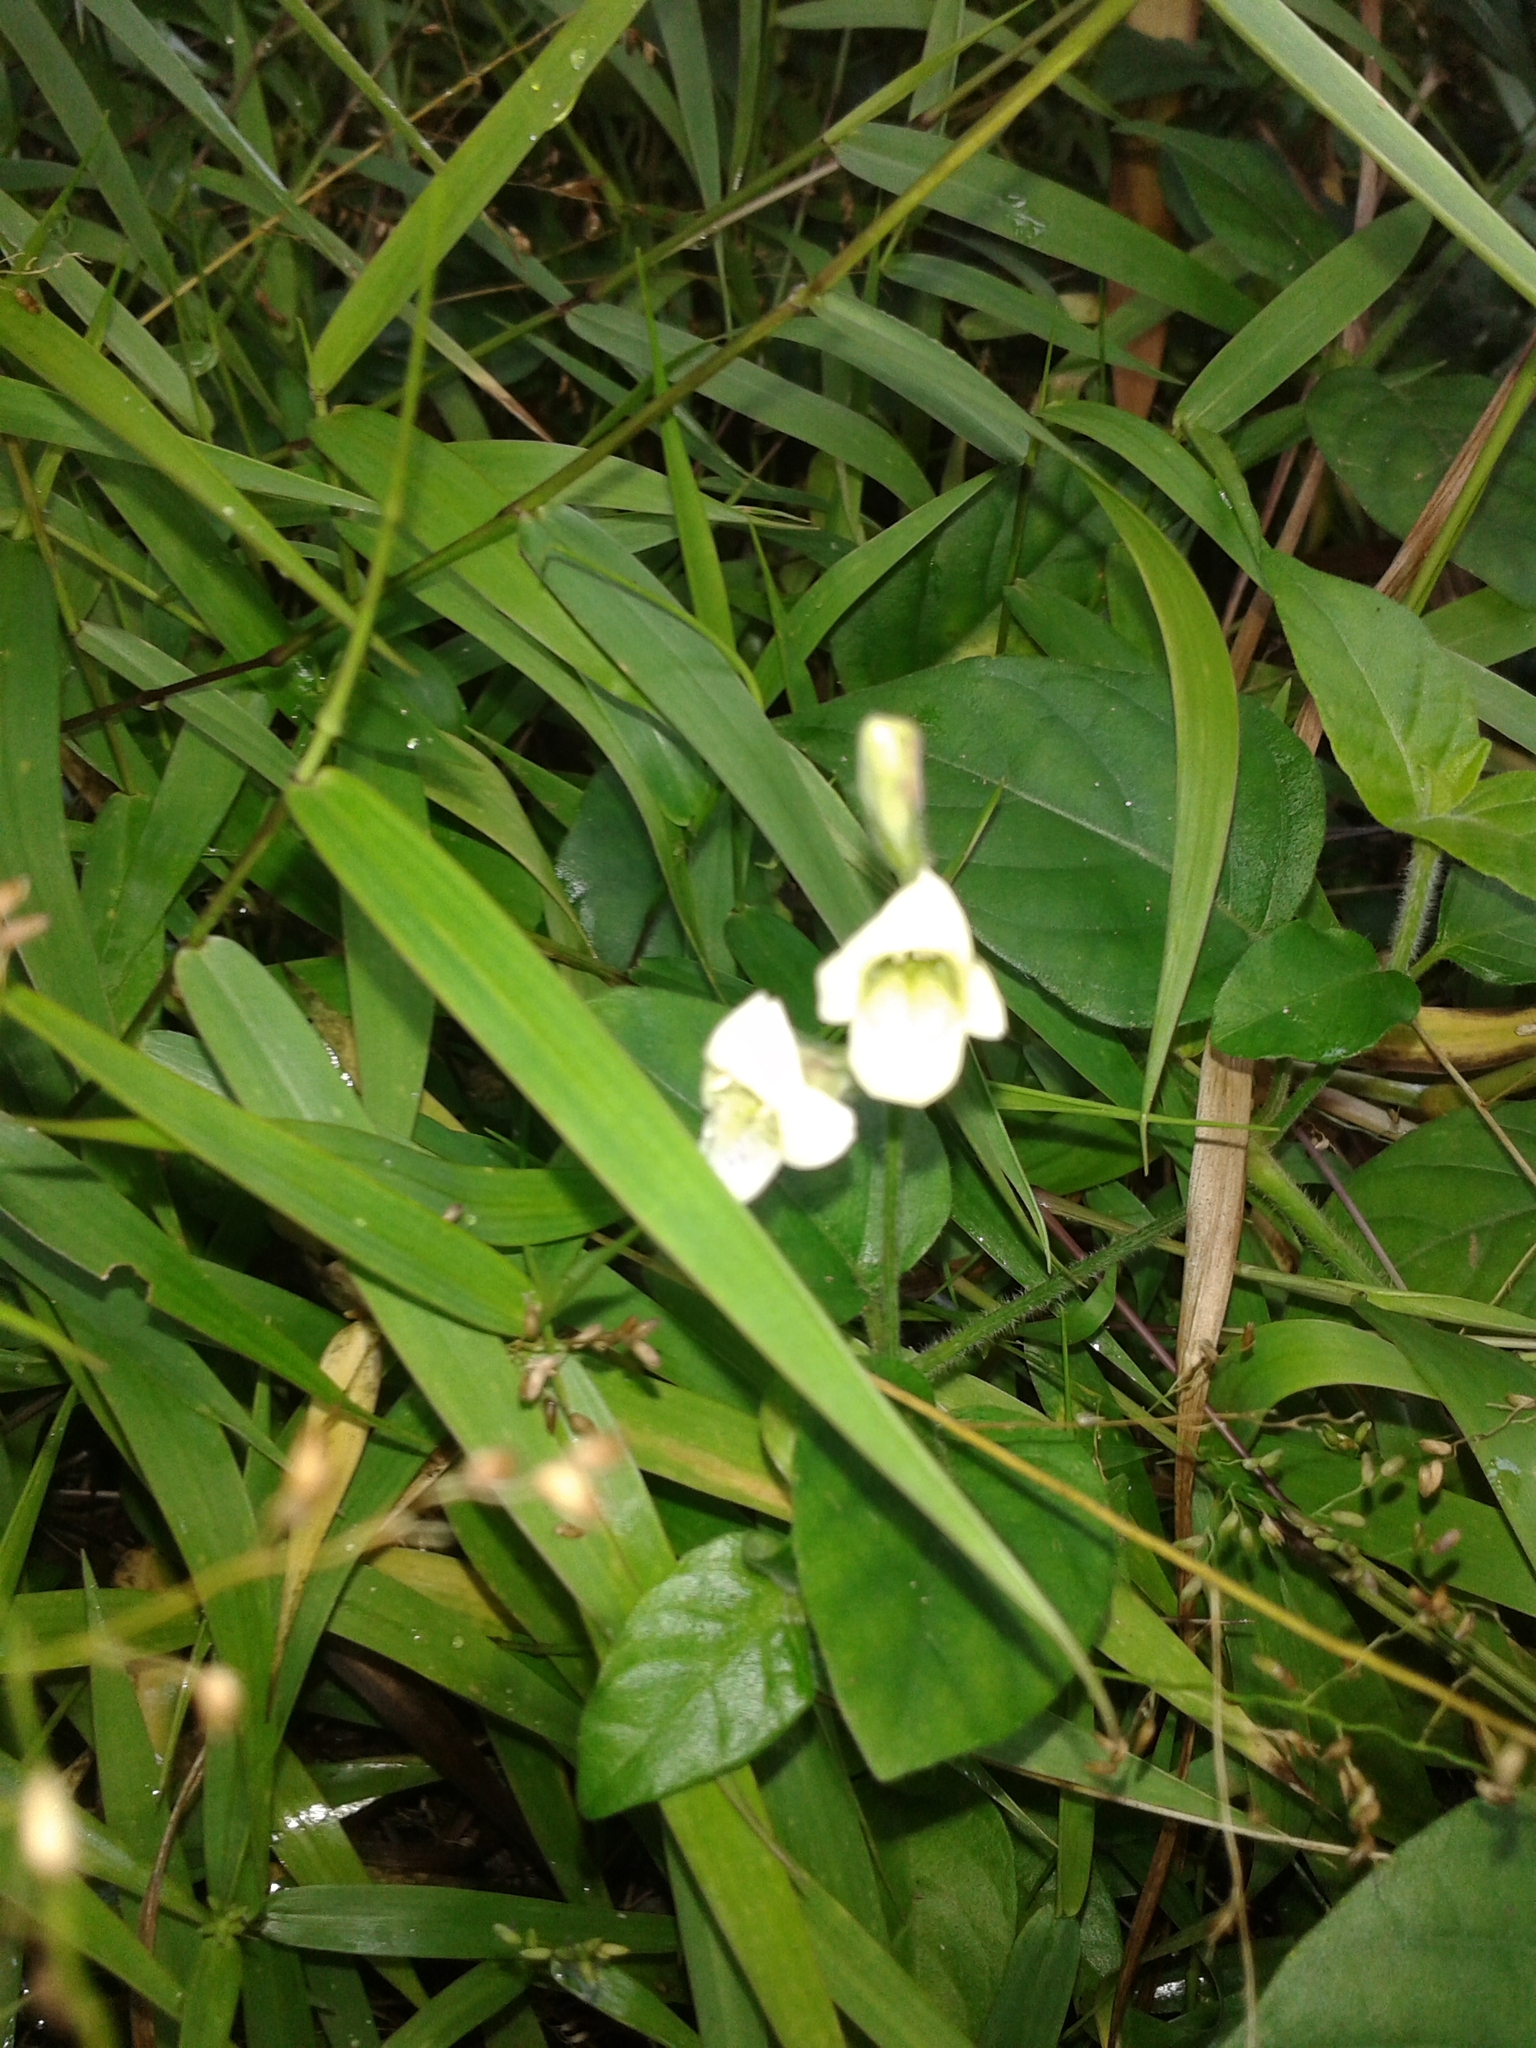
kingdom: Plantae
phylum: Tracheophyta
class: Magnoliopsida
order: Lamiales
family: Acanthaceae
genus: Asystasia
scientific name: Asystasia intrusa
